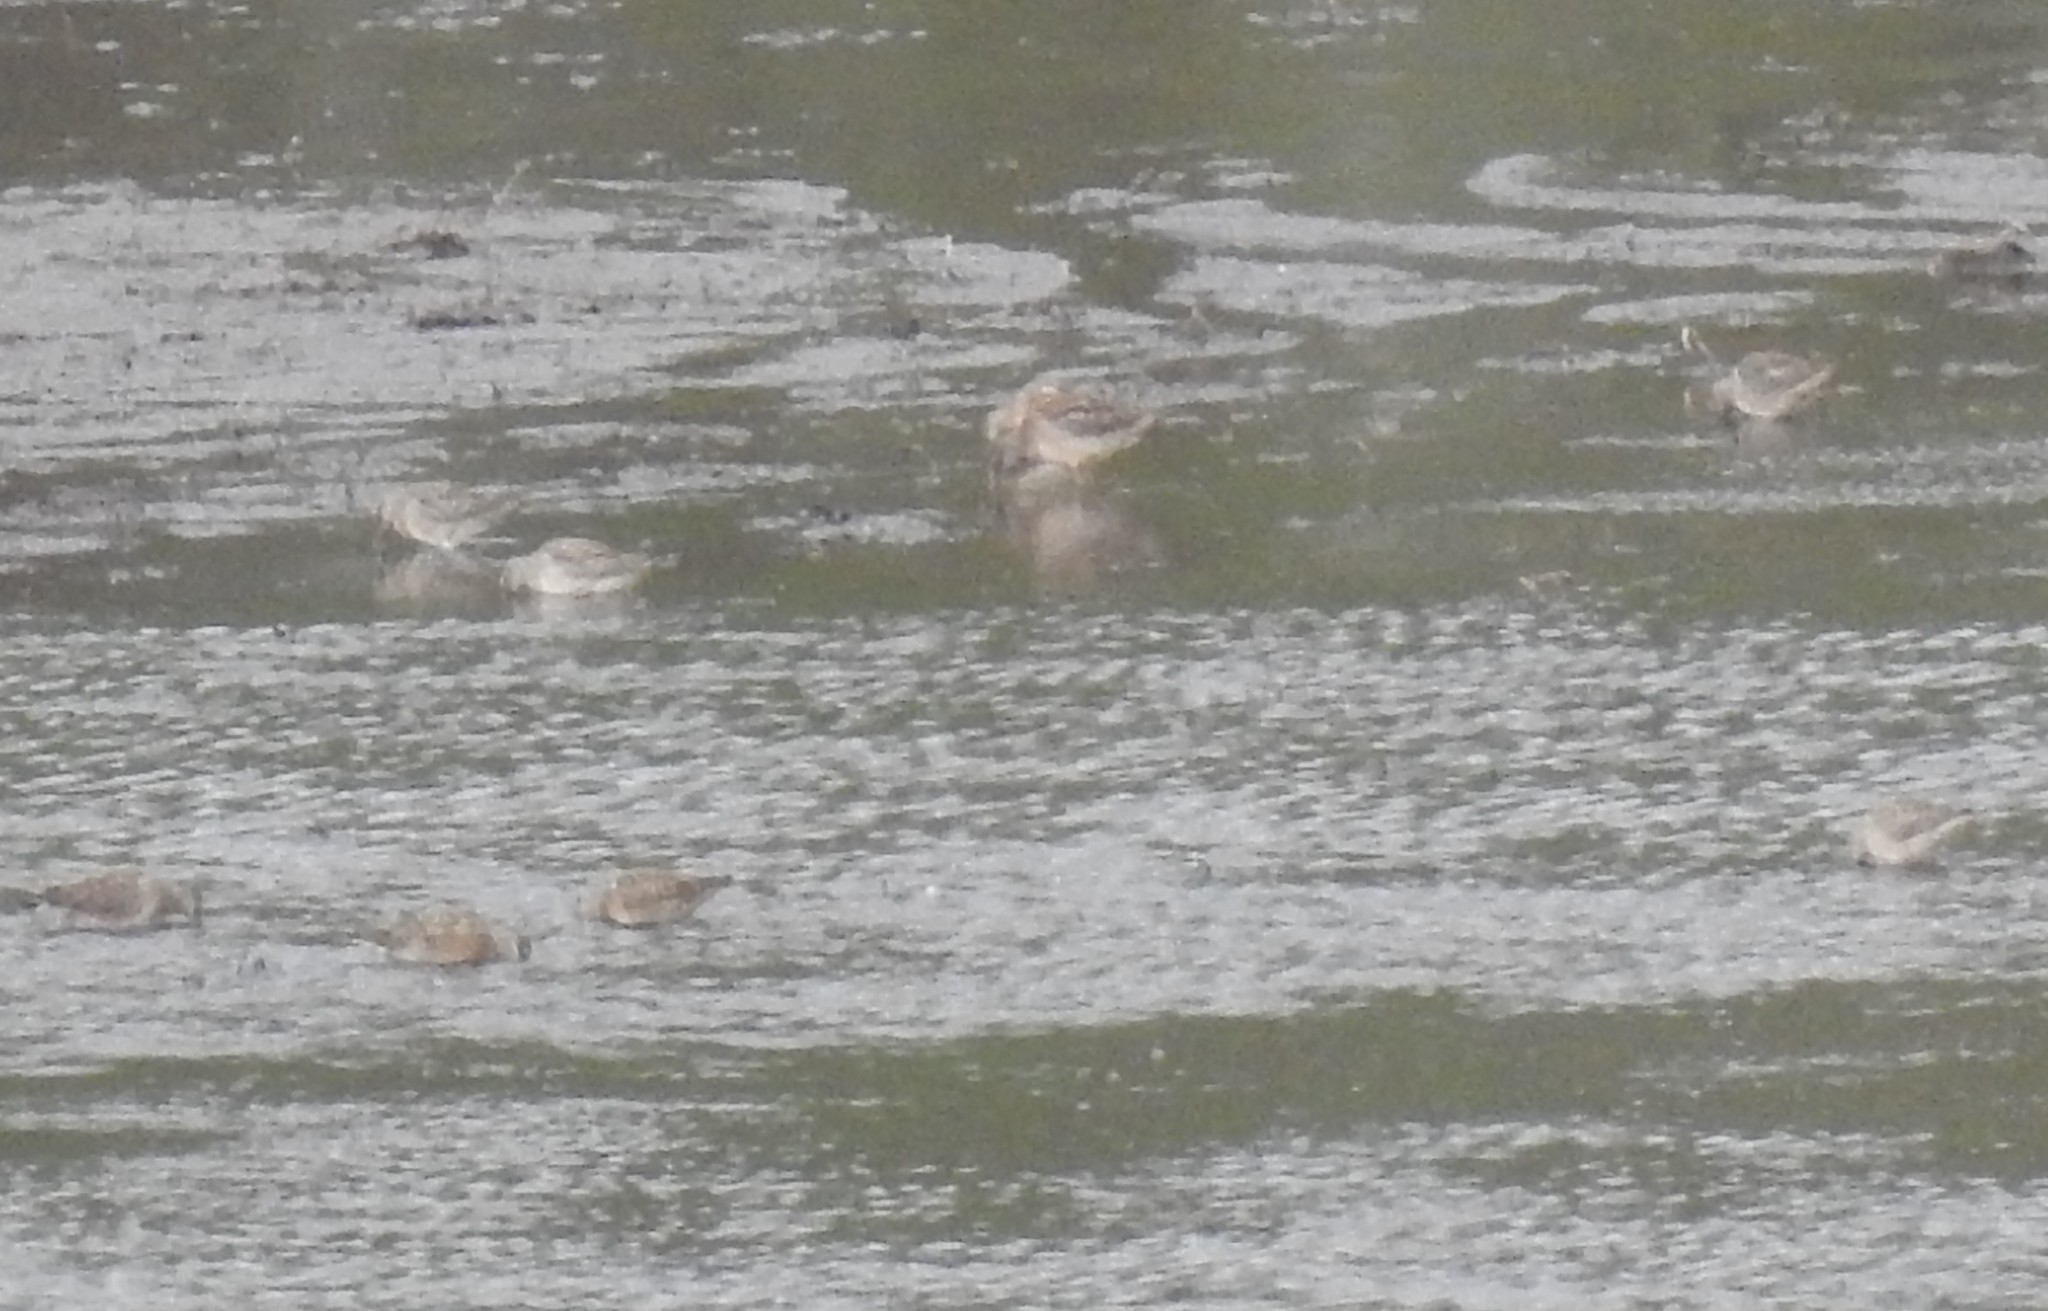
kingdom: Animalia
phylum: Chordata
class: Aves
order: Charadriiformes
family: Scolopacidae
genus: Limnodromus
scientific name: Limnodromus
